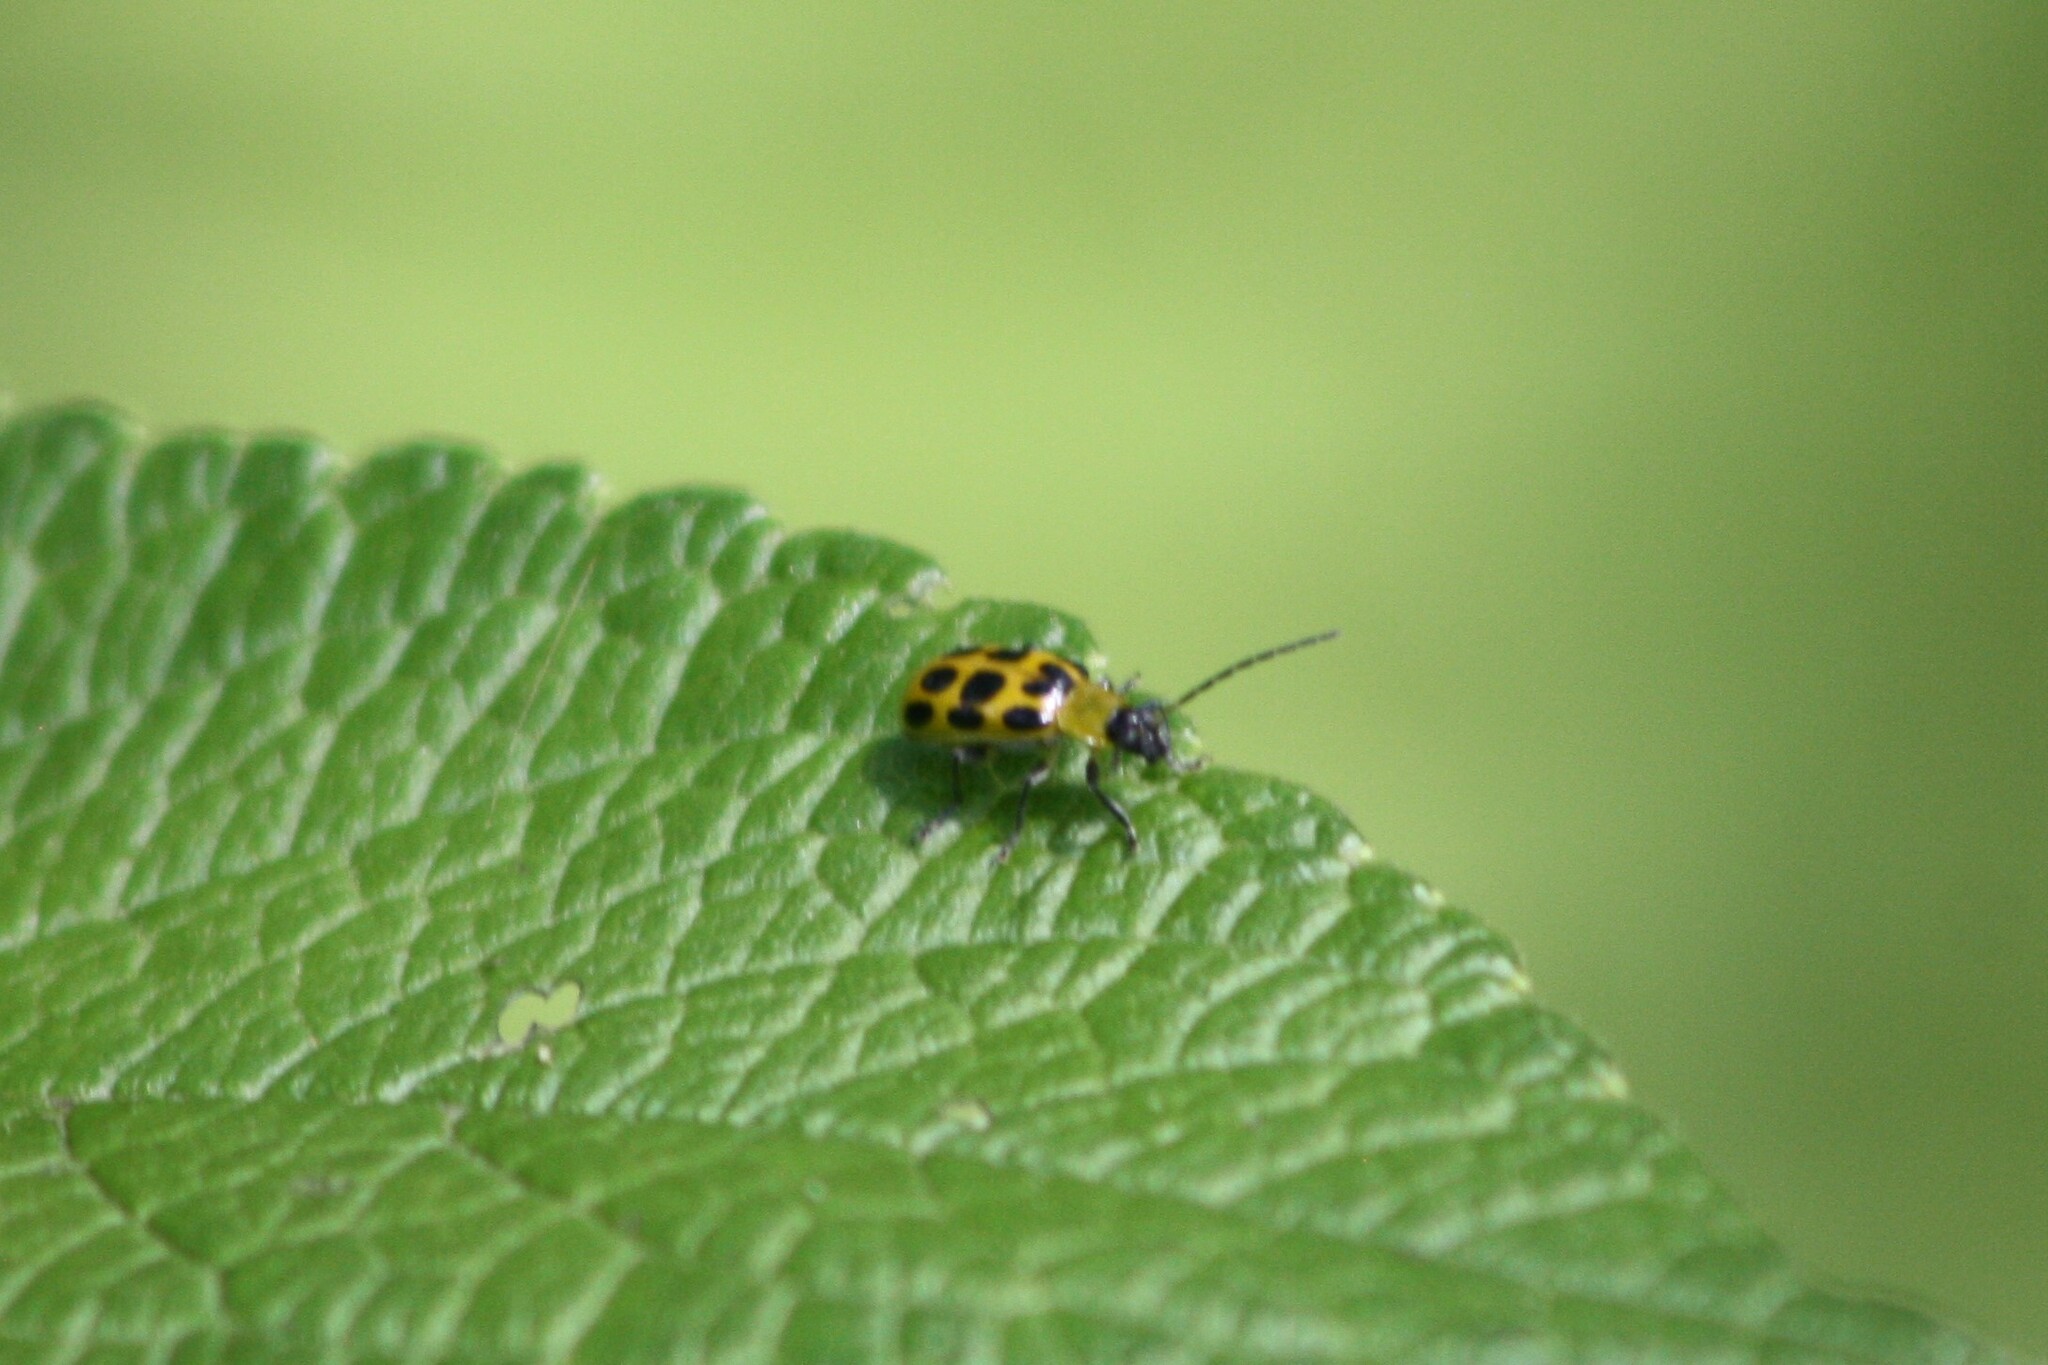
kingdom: Animalia
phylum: Arthropoda
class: Insecta
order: Coleoptera
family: Chrysomelidae
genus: Diabrotica
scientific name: Diabrotica undecimpunctata
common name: Spotted cucumber beetle
